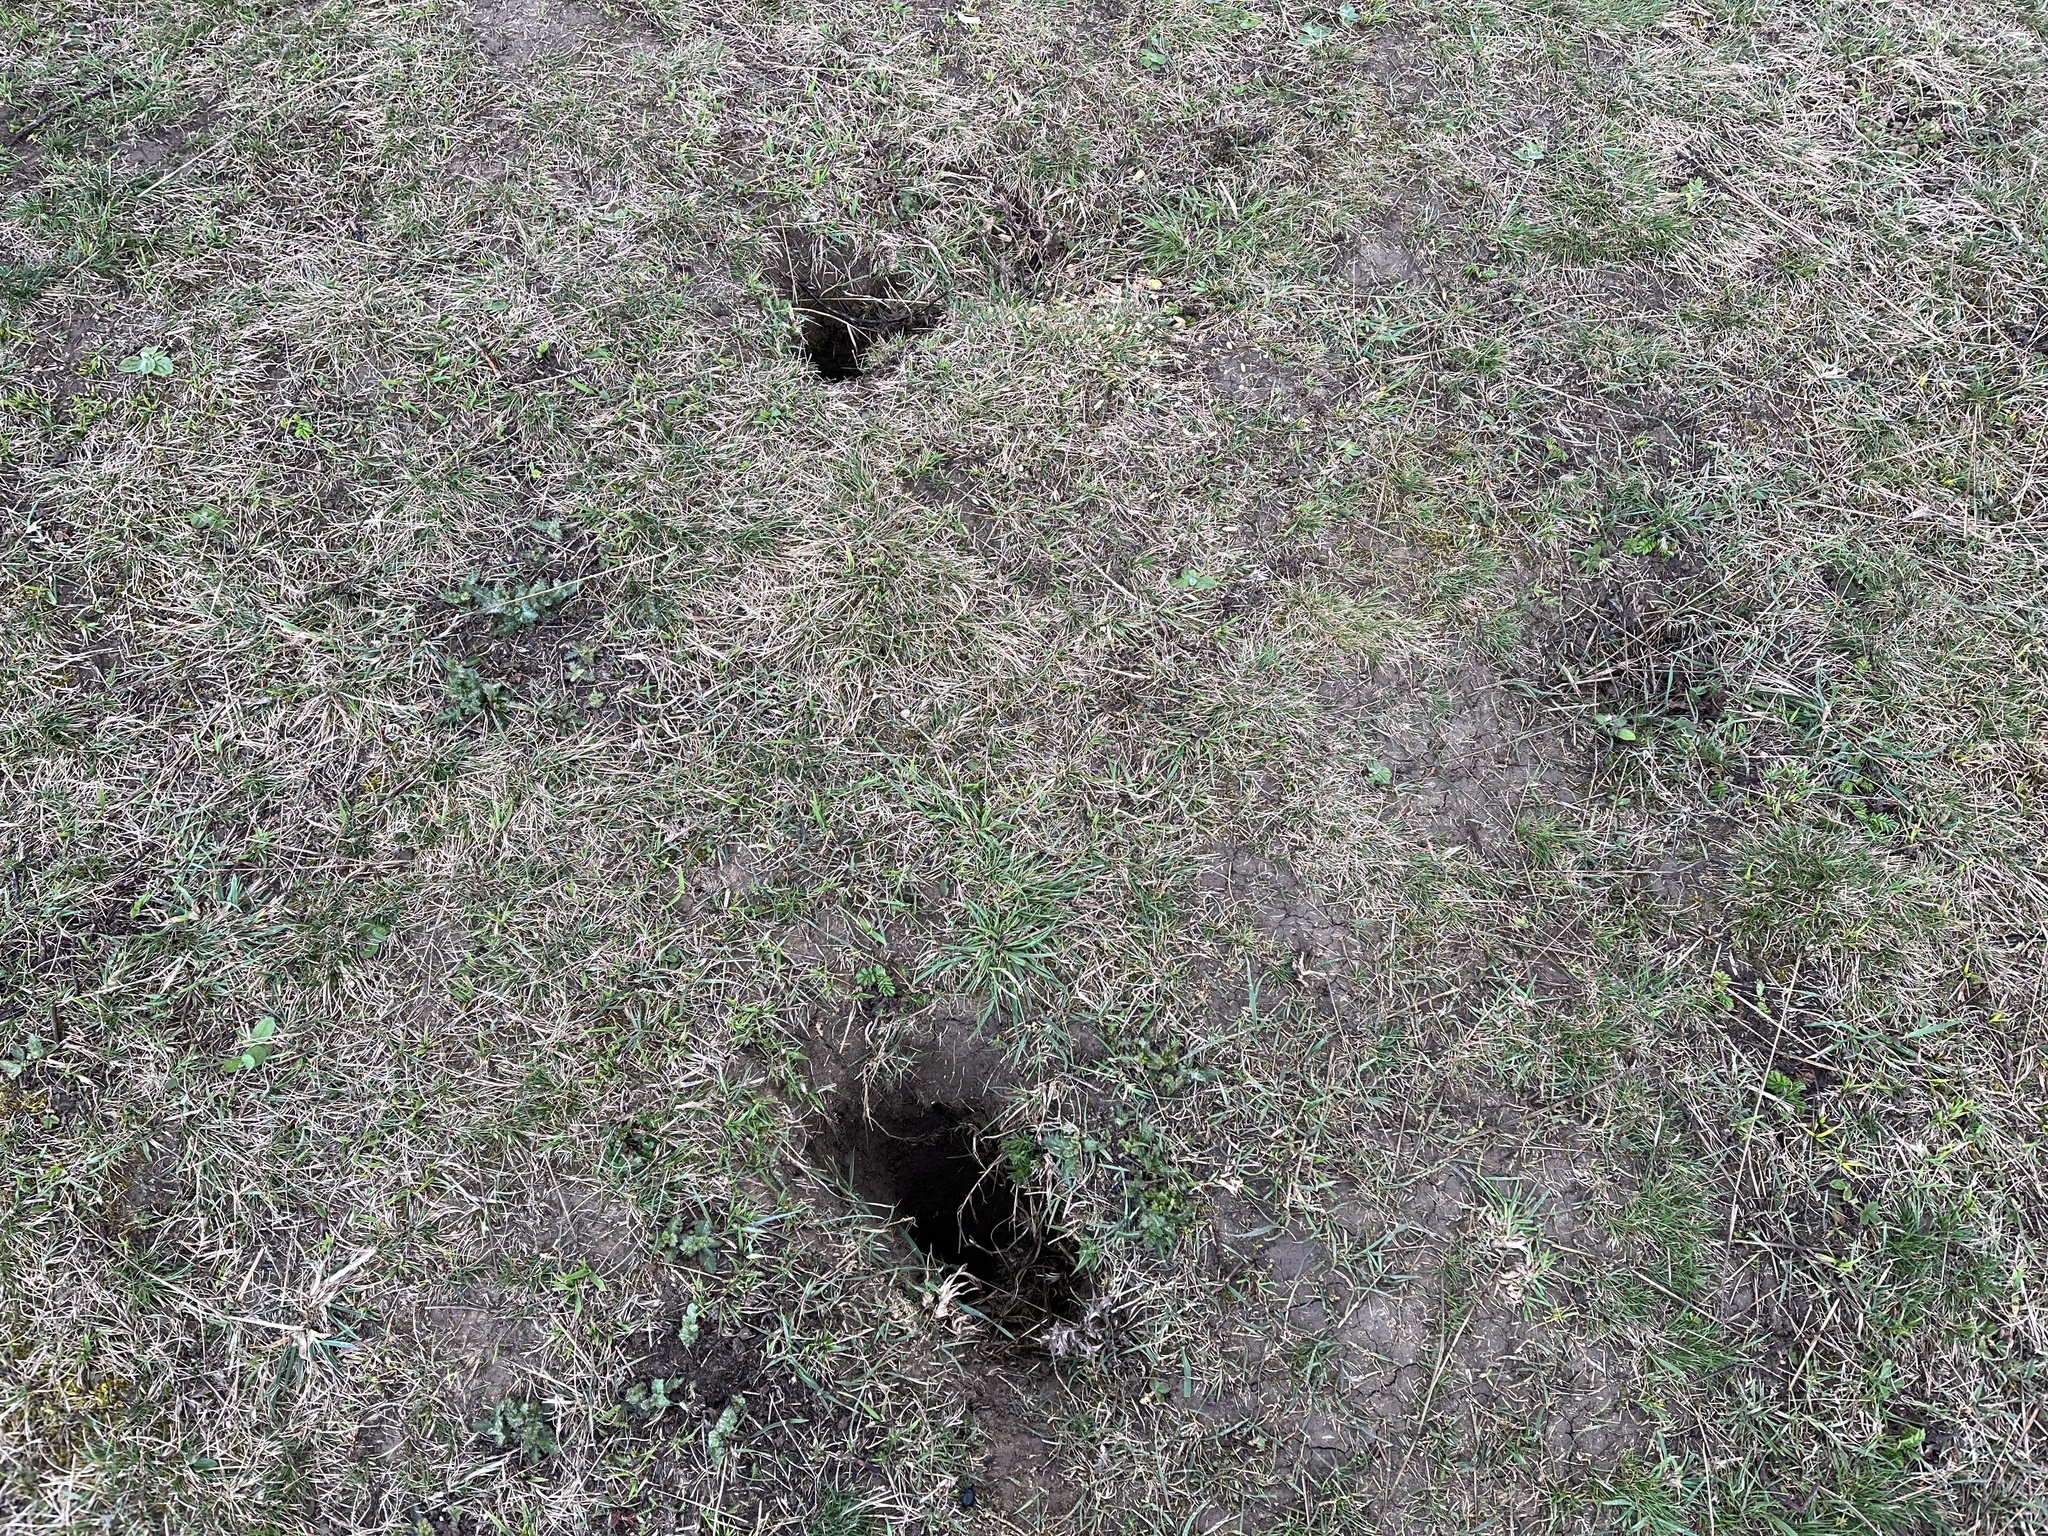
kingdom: Animalia
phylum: Chordata
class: Mammalia
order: Rodentia
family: Sciuridae
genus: Spermophilus
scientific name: Spermophilus citellus
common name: European ground squirrel
